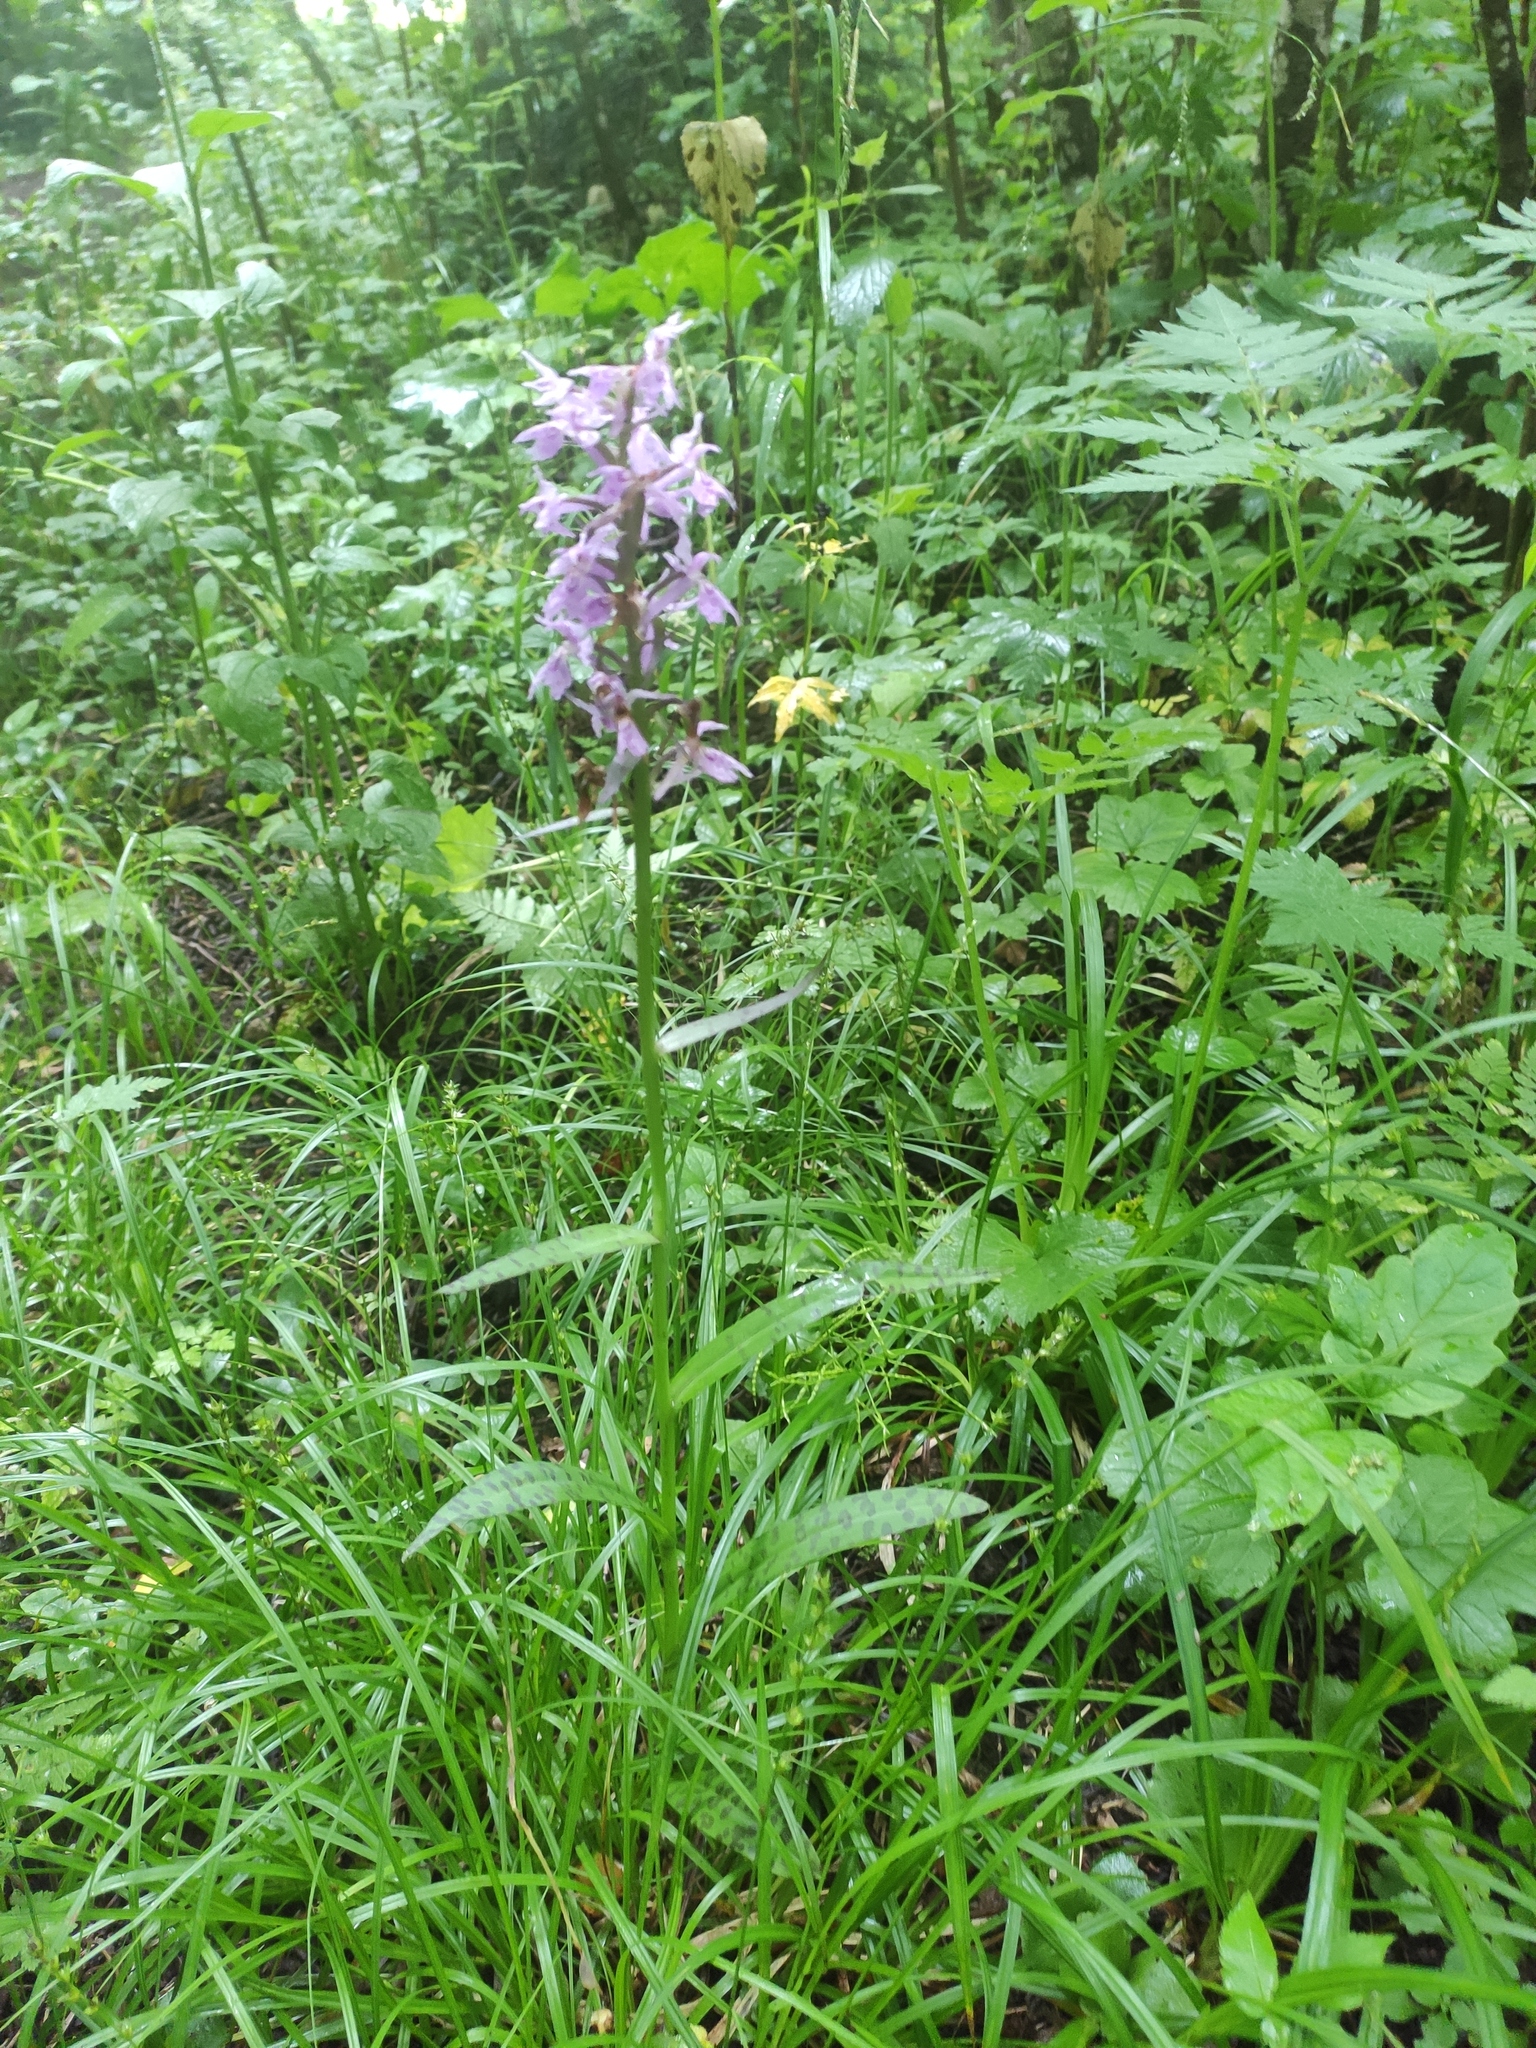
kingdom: Plantae
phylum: Tracheophyta
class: Liliopsida
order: Asparagales
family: Orchidaceae
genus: Dactylorhiza
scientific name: Dactylorhiza urvilleana
